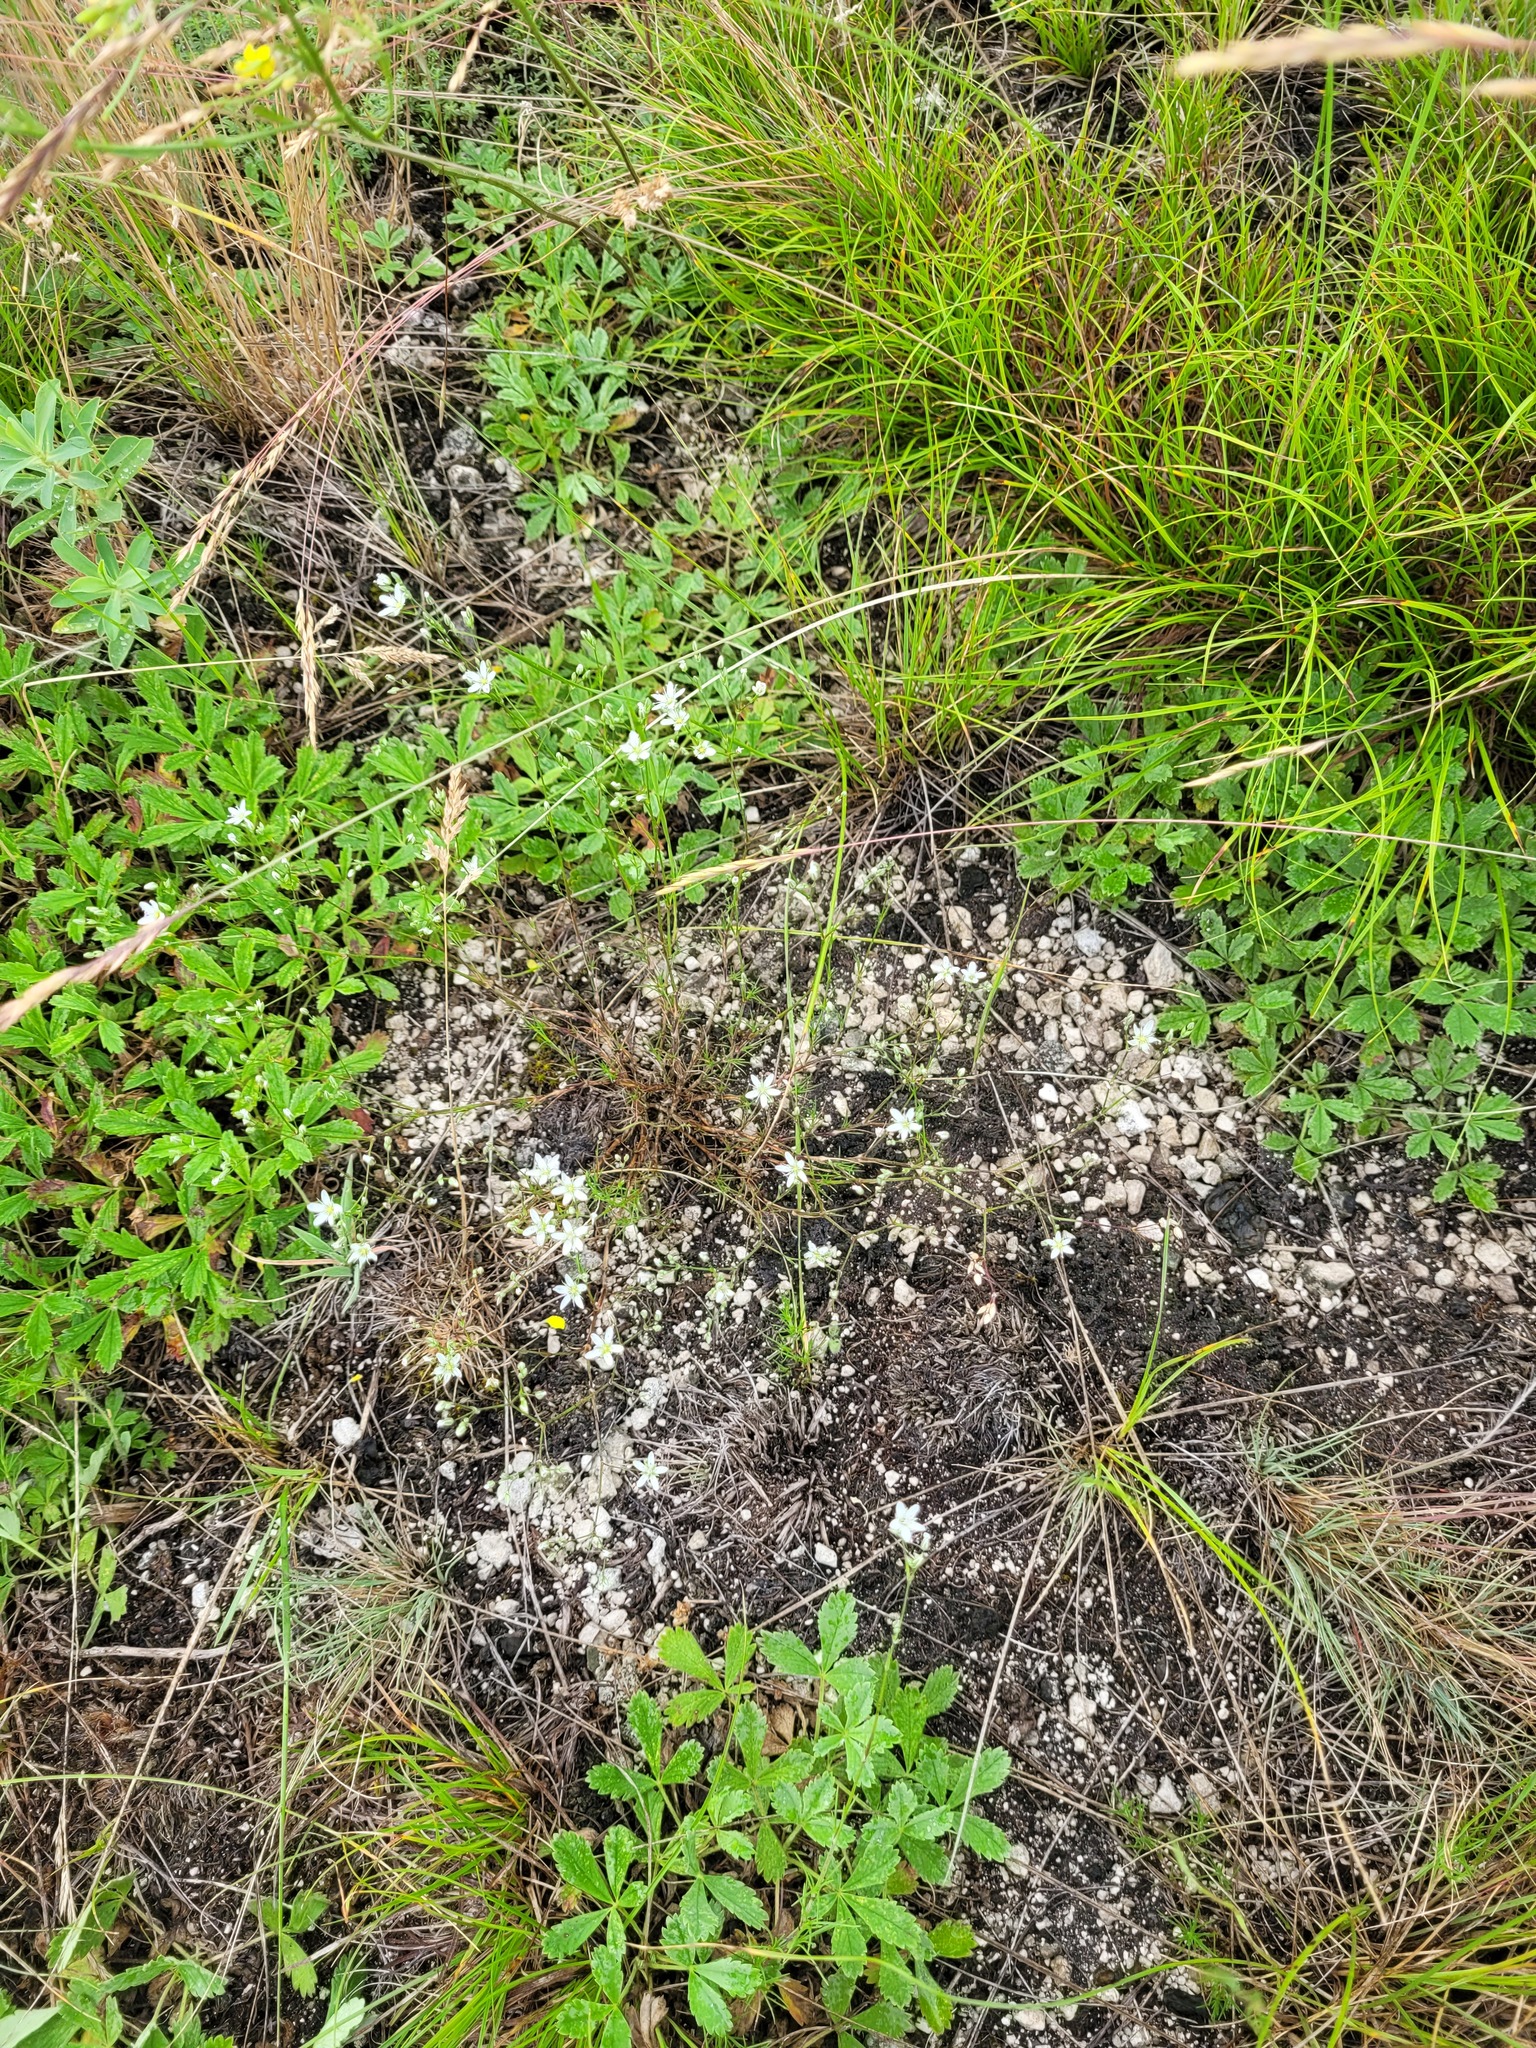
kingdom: Plantae
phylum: Tracheophyta
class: Magnoliopsida
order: Caryophyllales
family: Caryophyllaceae
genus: Minuartia
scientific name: Minuartia setacea
